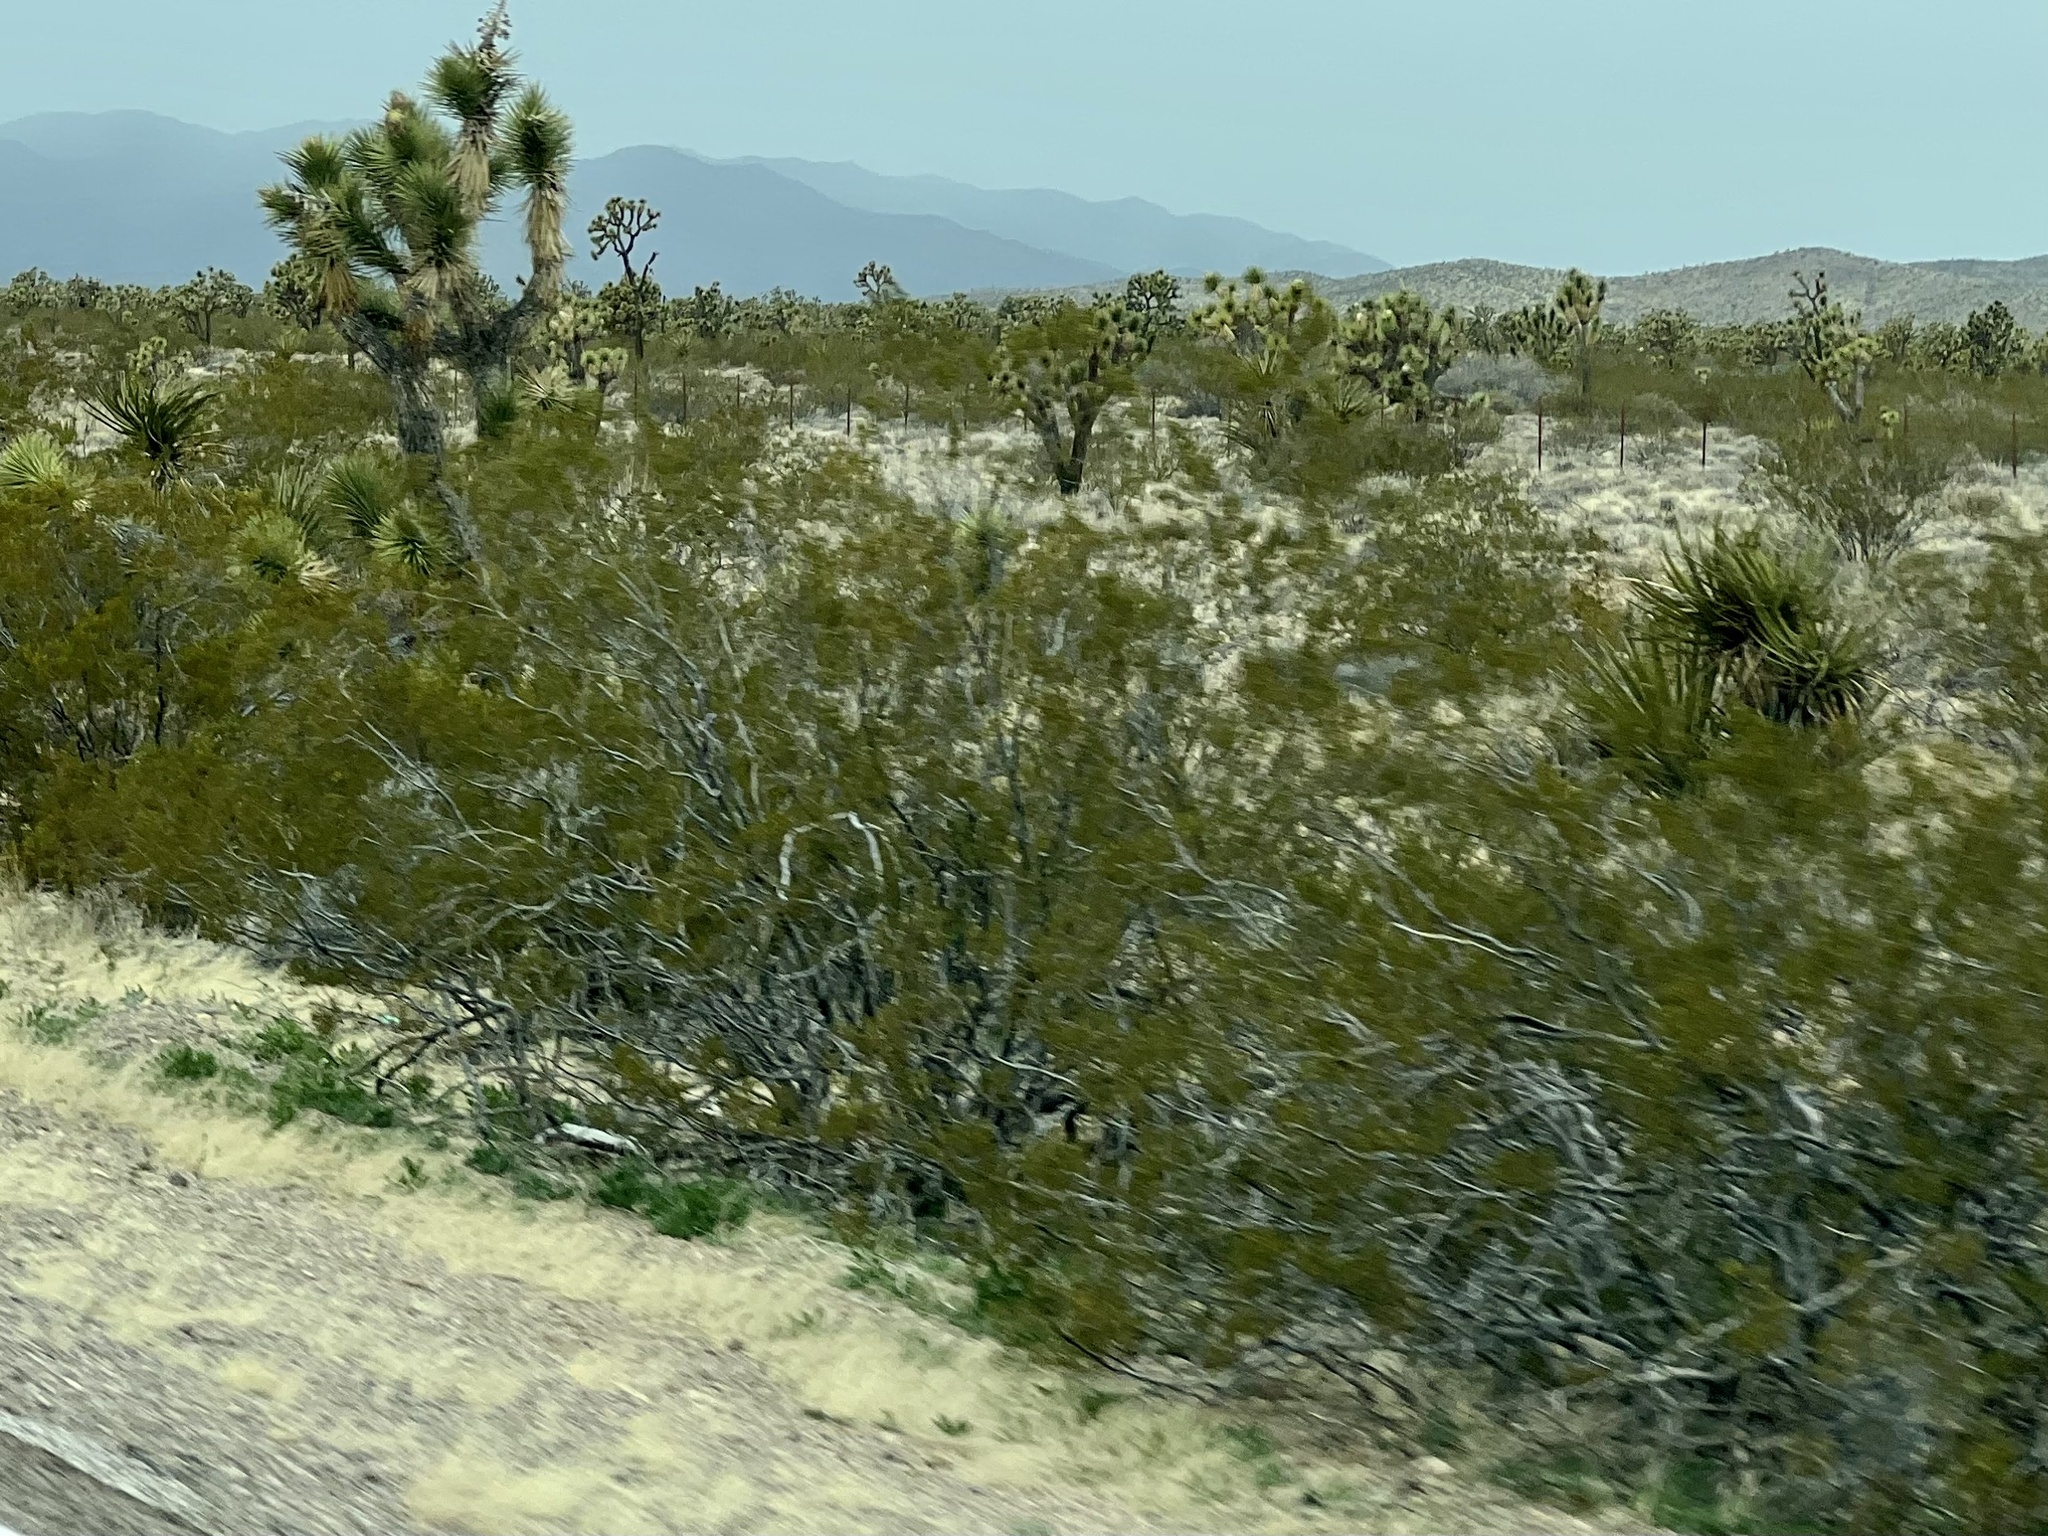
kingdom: Plantae
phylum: Tracheophyta
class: Magnoliopsida
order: Zygophyllales
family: Zygophyllaceae
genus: Larrea
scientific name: Larrea tridentata
